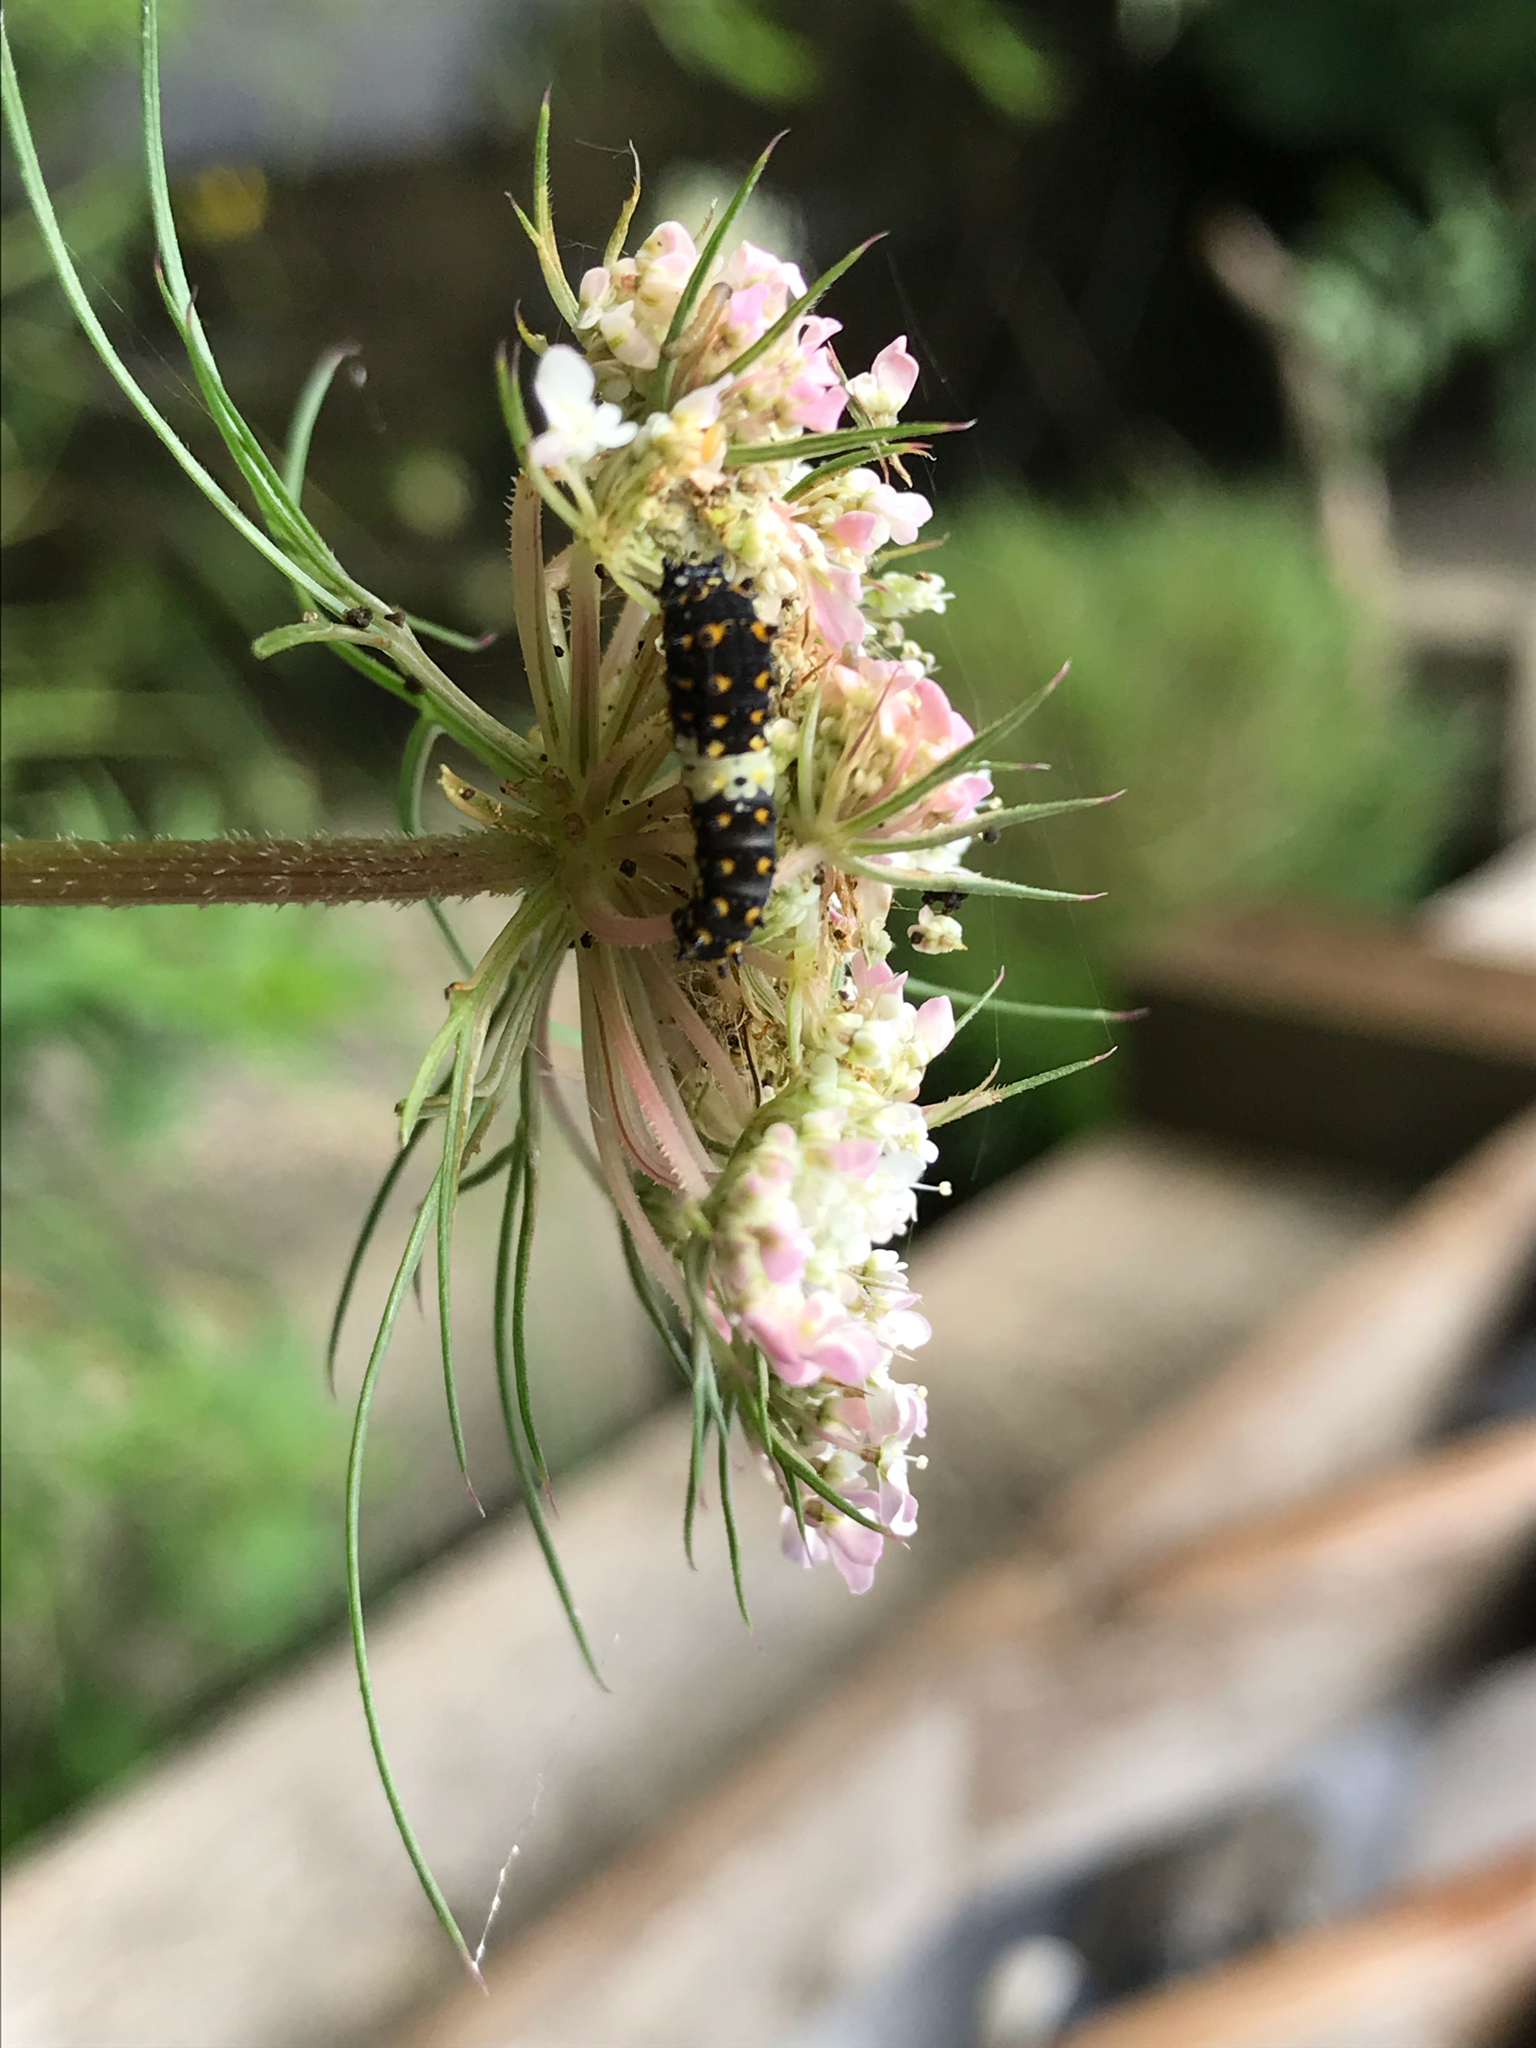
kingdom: Animalia
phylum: Arthropoda
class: Insecta
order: Lepidoptera
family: Papilionidae
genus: Papilio
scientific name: Papilio polyxenes
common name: Black swallowtail
